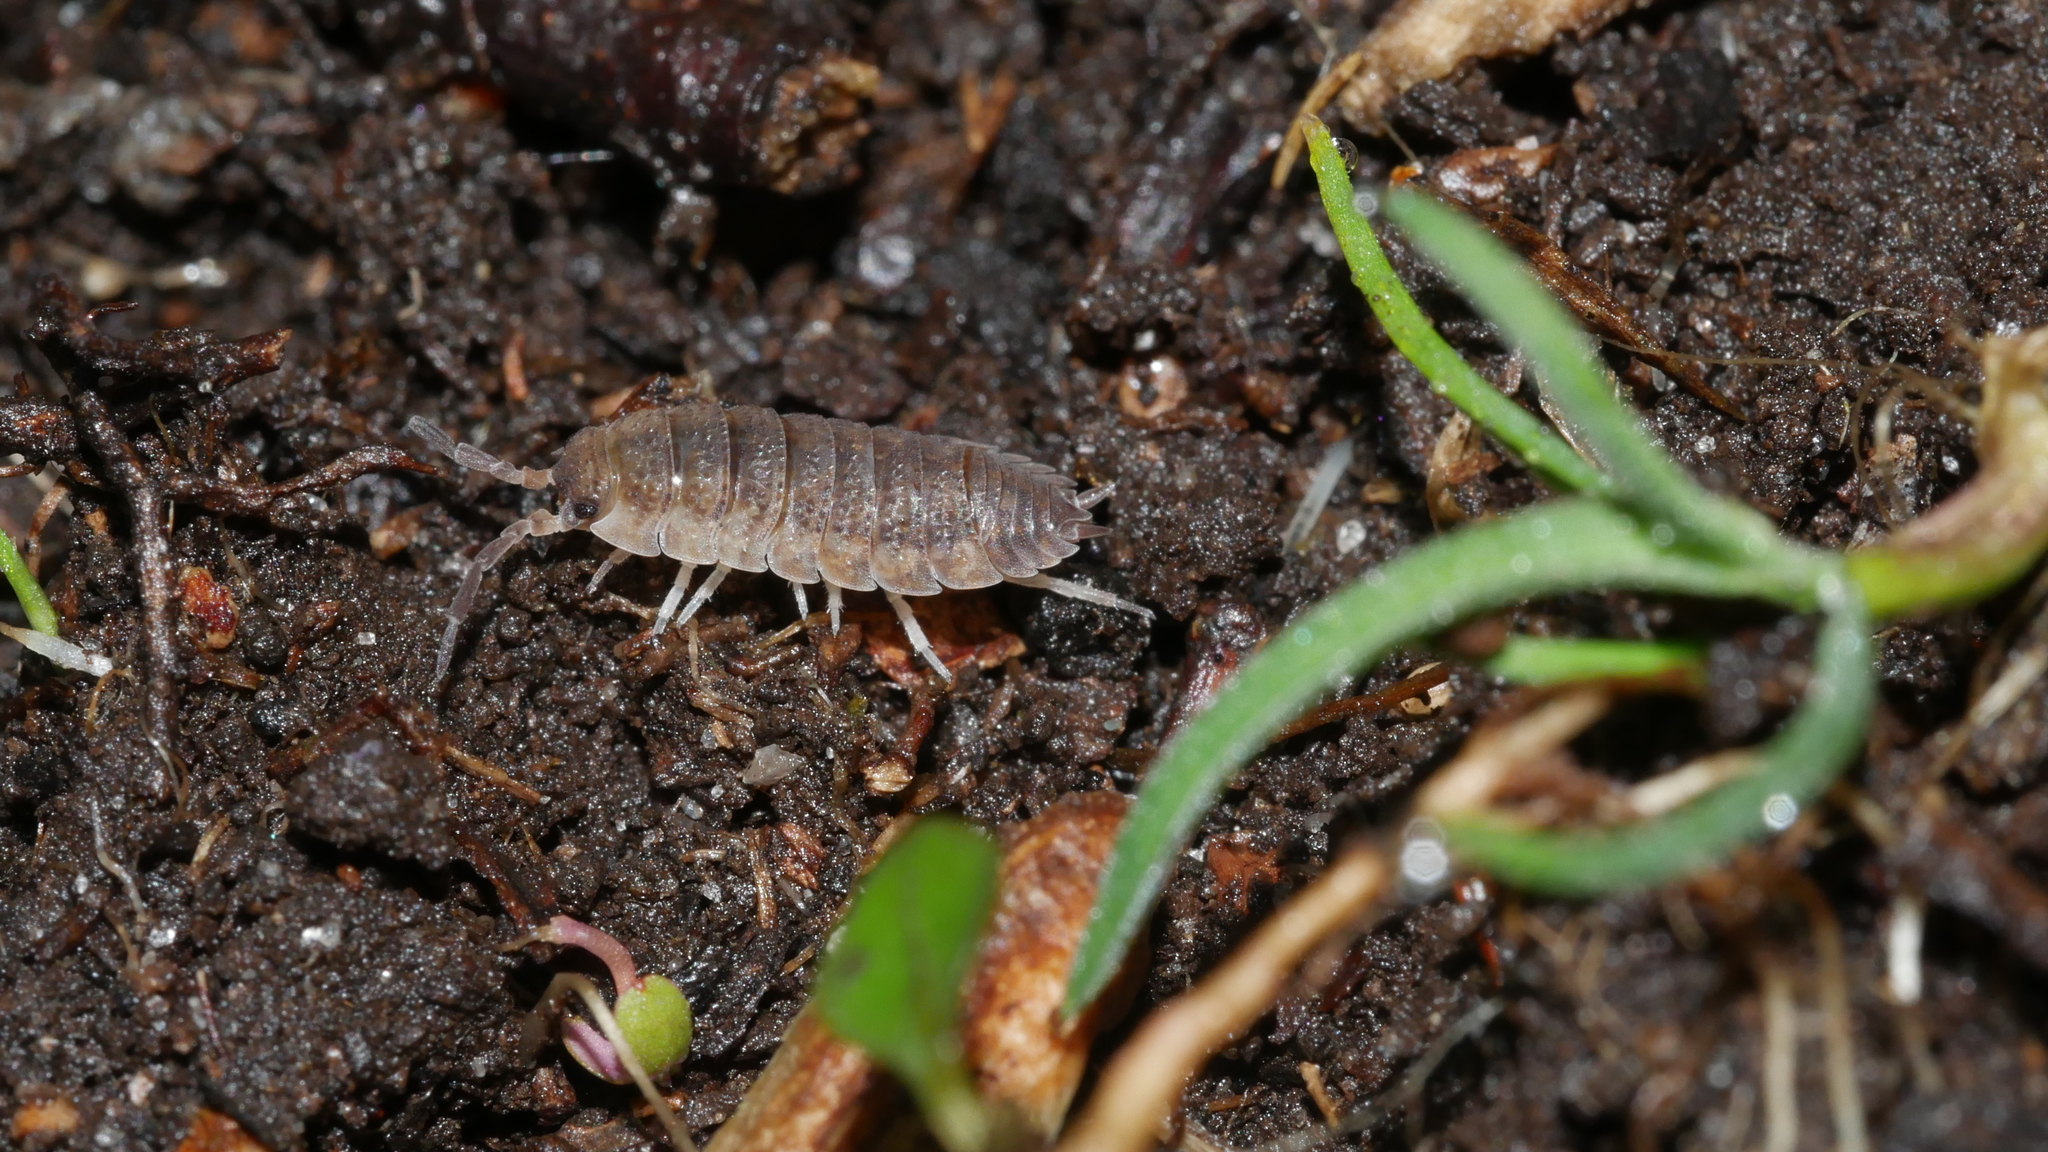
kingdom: Animalia
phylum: Arthropoda
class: Malacostraca
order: Isopoda
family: Porcellionidae
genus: Porcellio
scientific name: Porcellio scaber
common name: Common rough woodlouse
